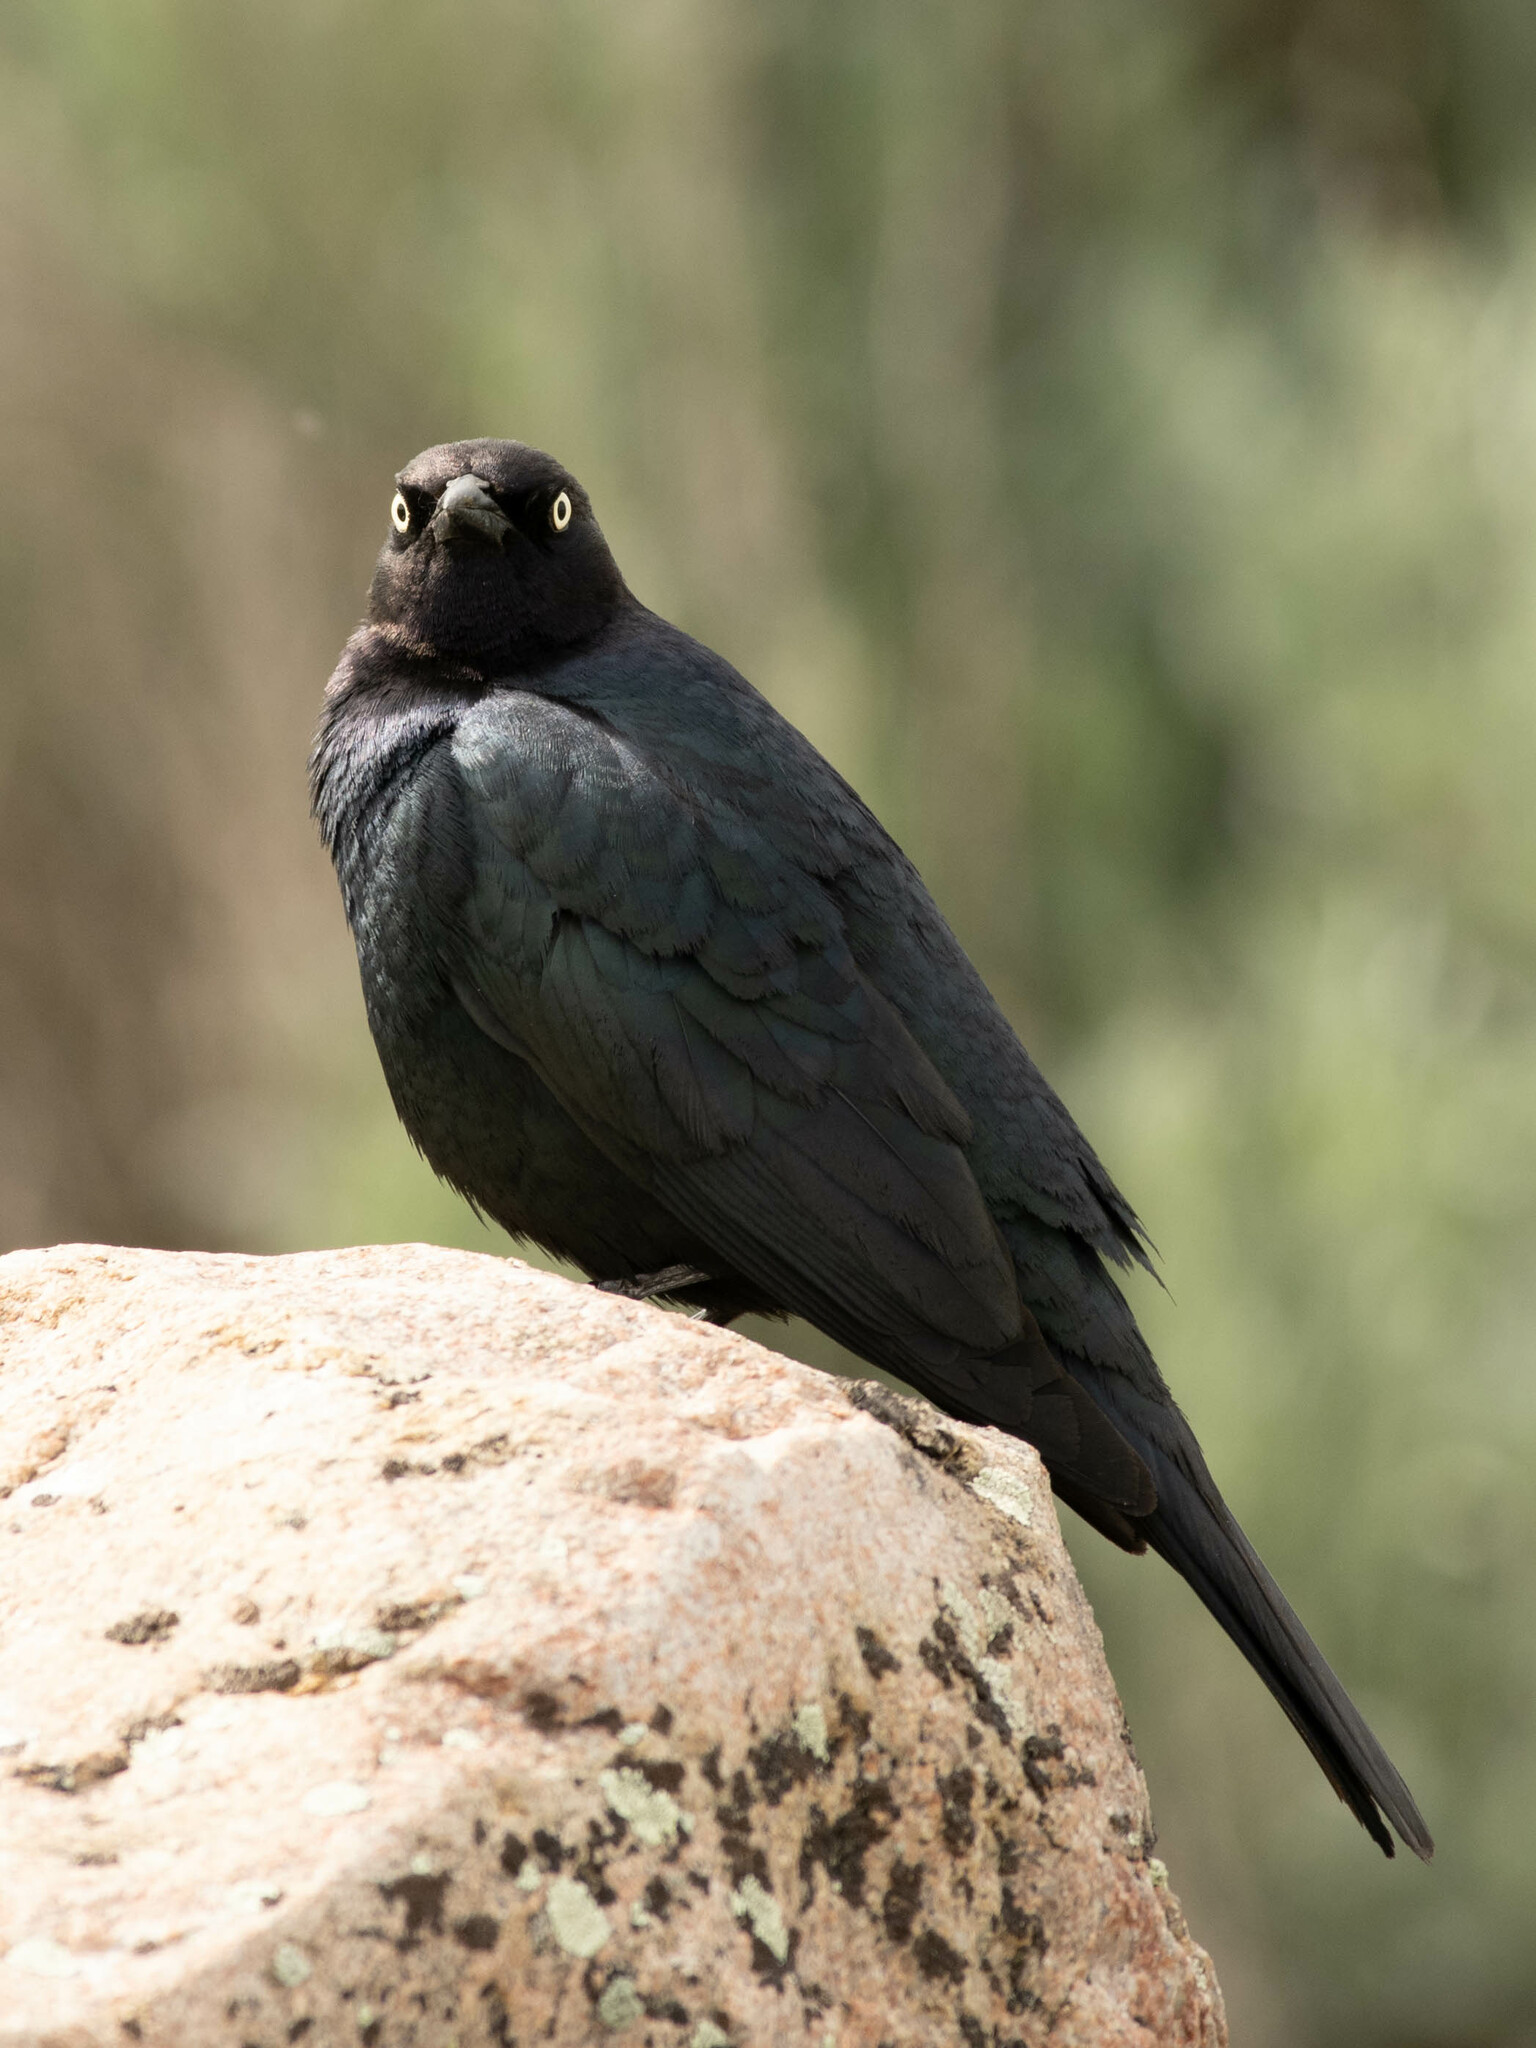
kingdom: Animalia
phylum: Chordata
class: Aves
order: Passeriformes
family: Icteridae
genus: Euphagus
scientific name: Euphagus cyanocephalus
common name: Brewer's blackbird
